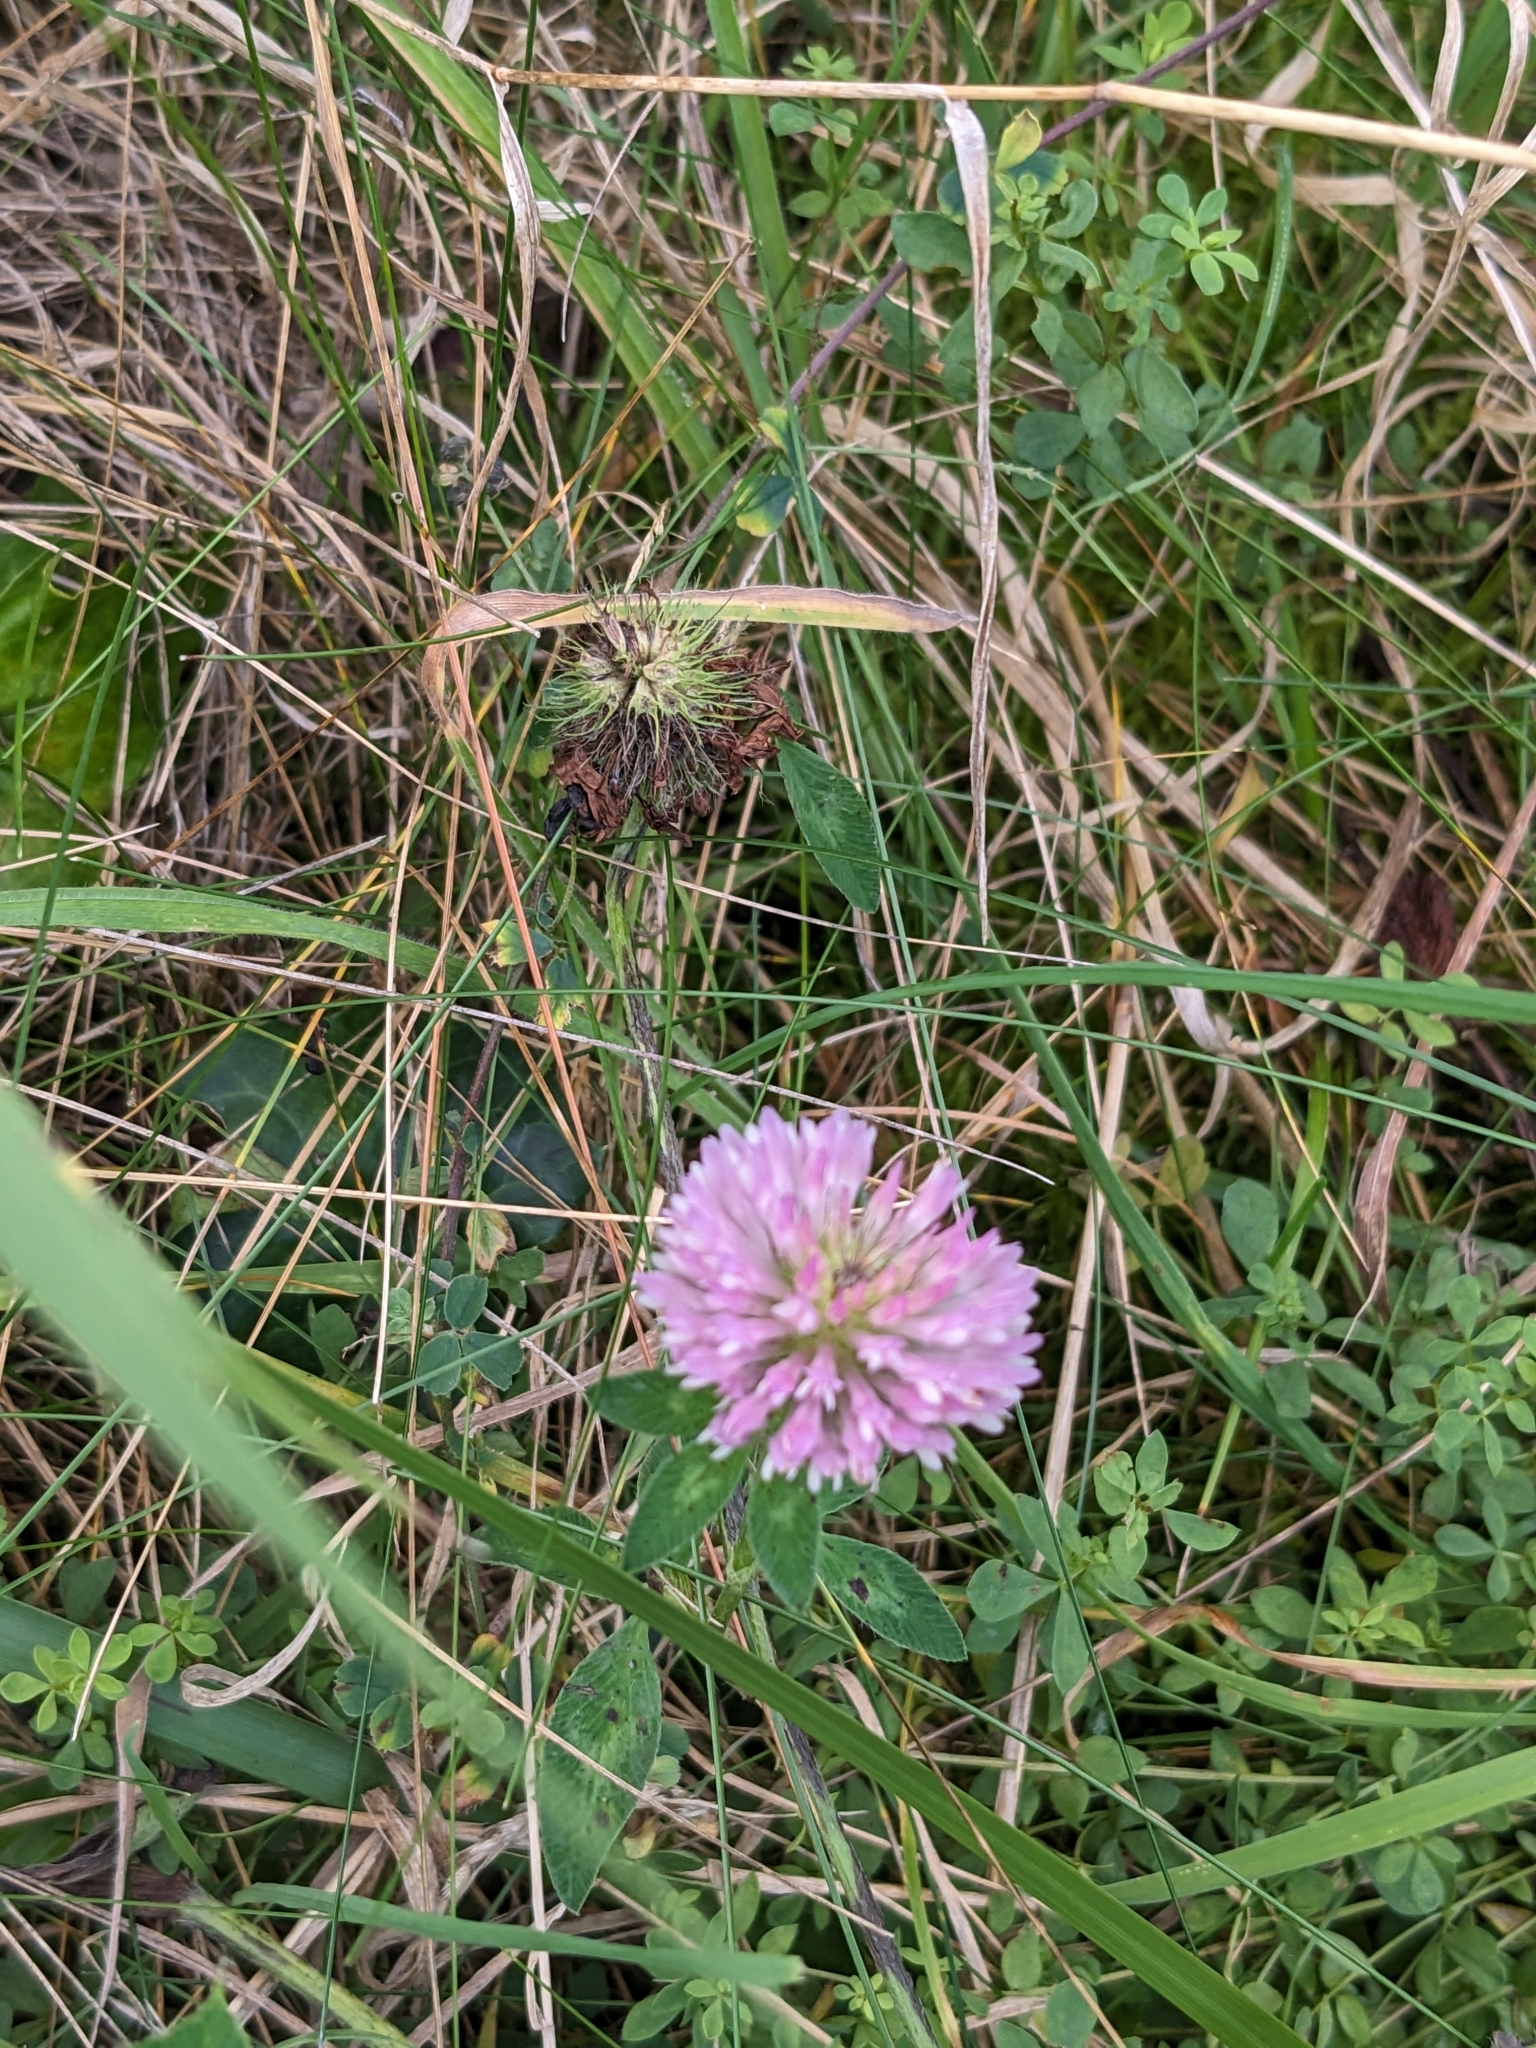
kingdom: Plantae
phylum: Tracheophyta
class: Magnoliopsida
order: Fabales
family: Fabaceae
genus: Trifolium
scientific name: Trifolium pratense
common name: Red clover
